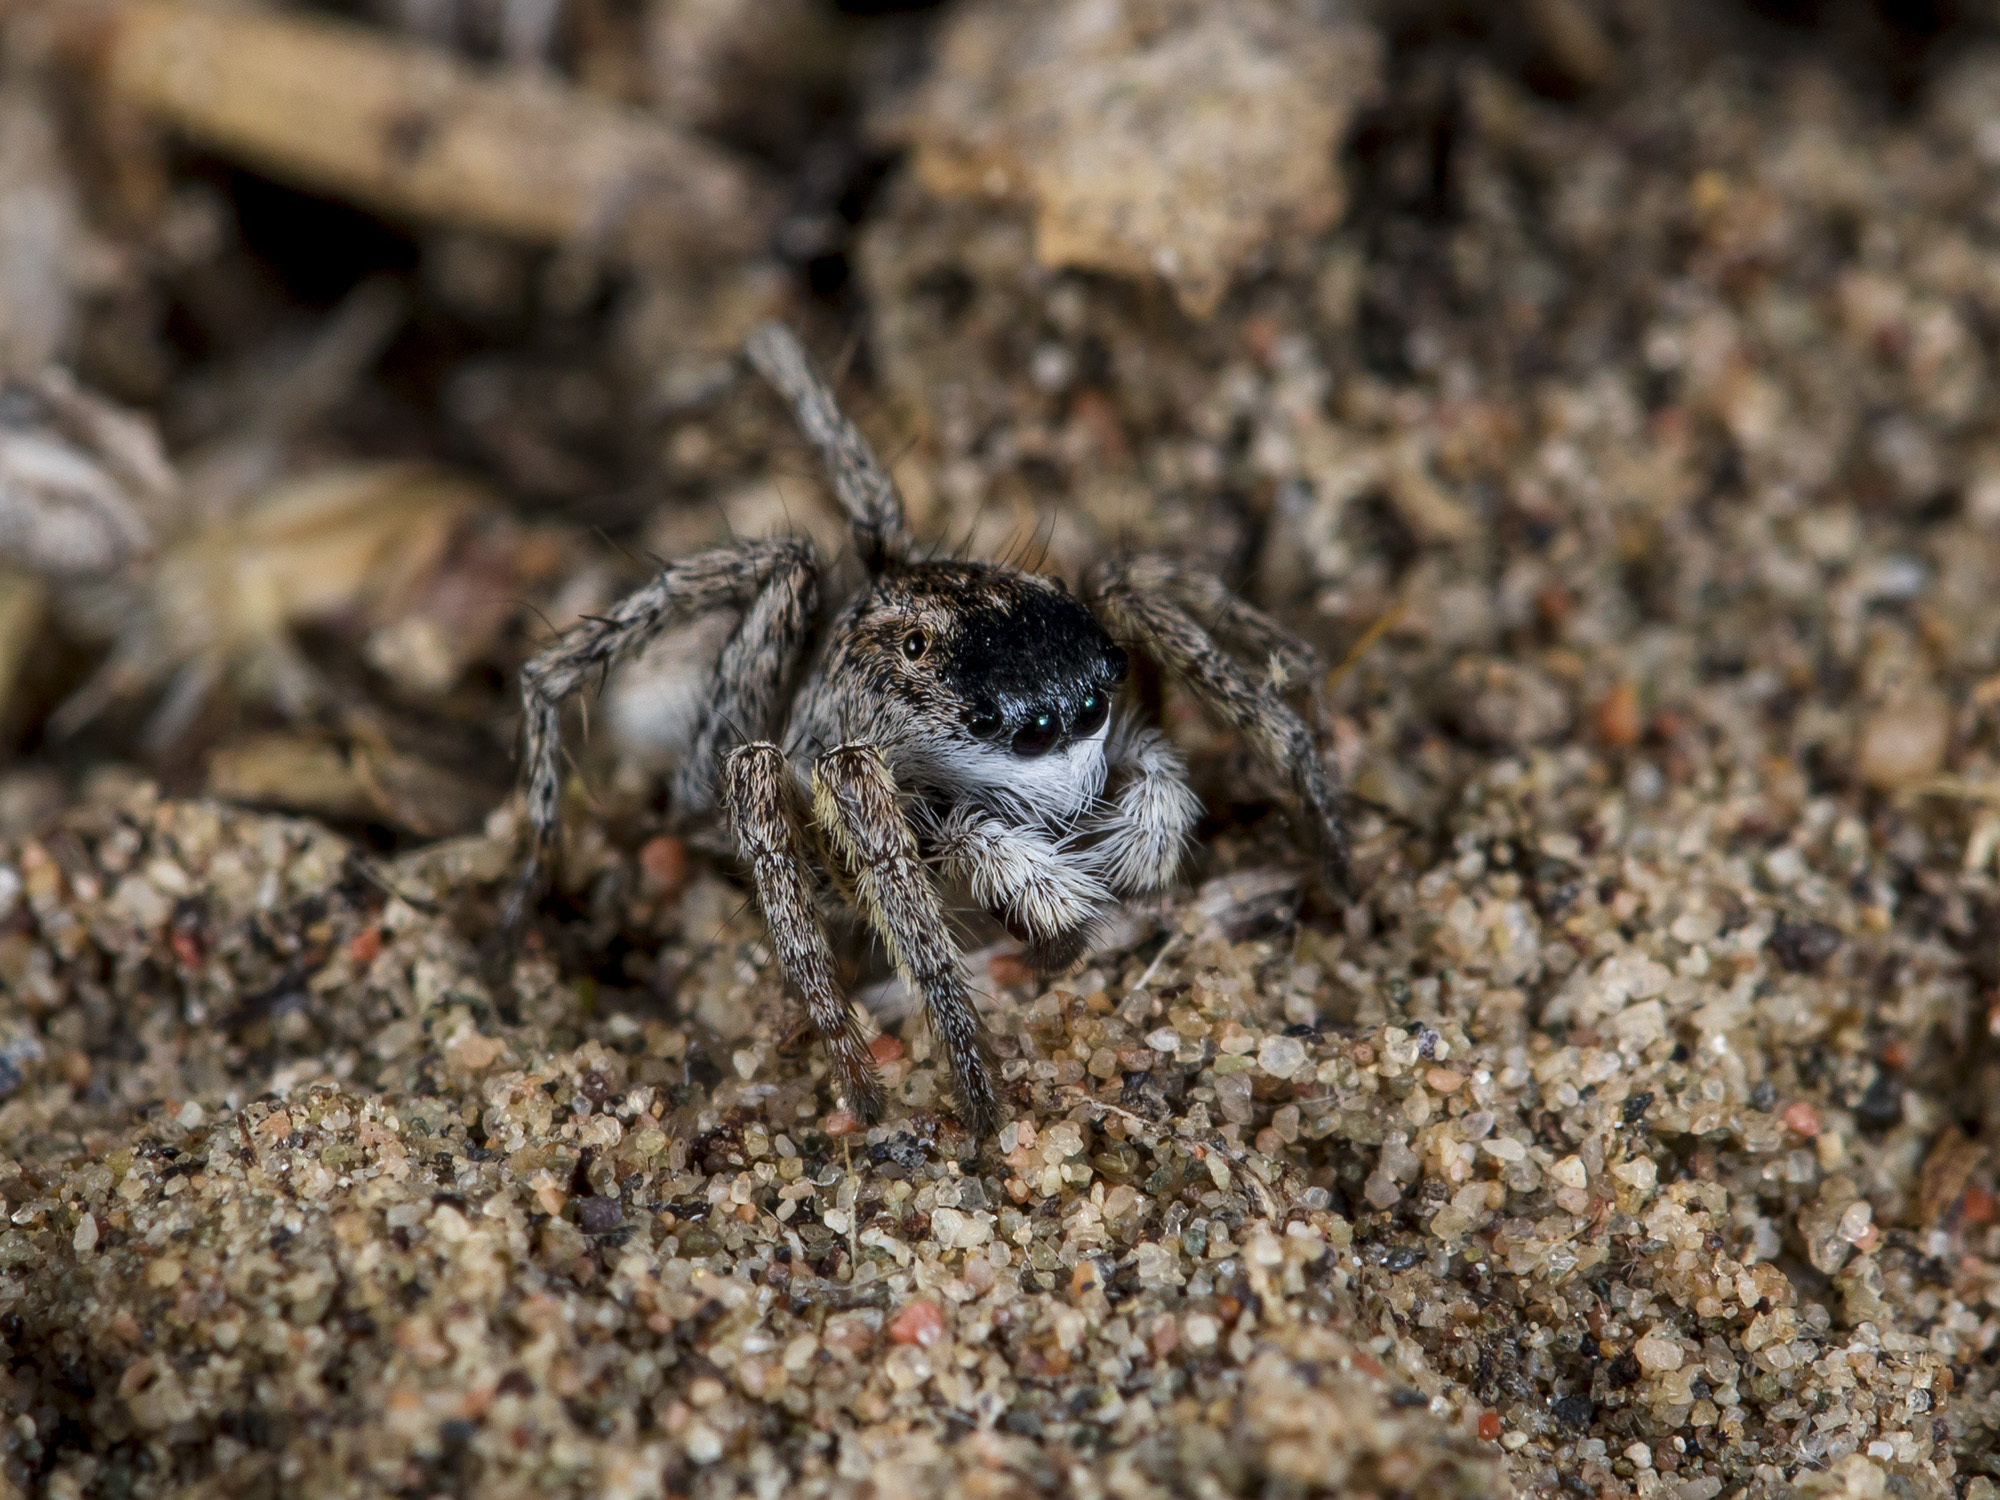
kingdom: Animalia
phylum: Arthropoda
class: Arachnida
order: Araneae
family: Salticidae
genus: Aelurillus
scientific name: Aelurillus m-nigrum
